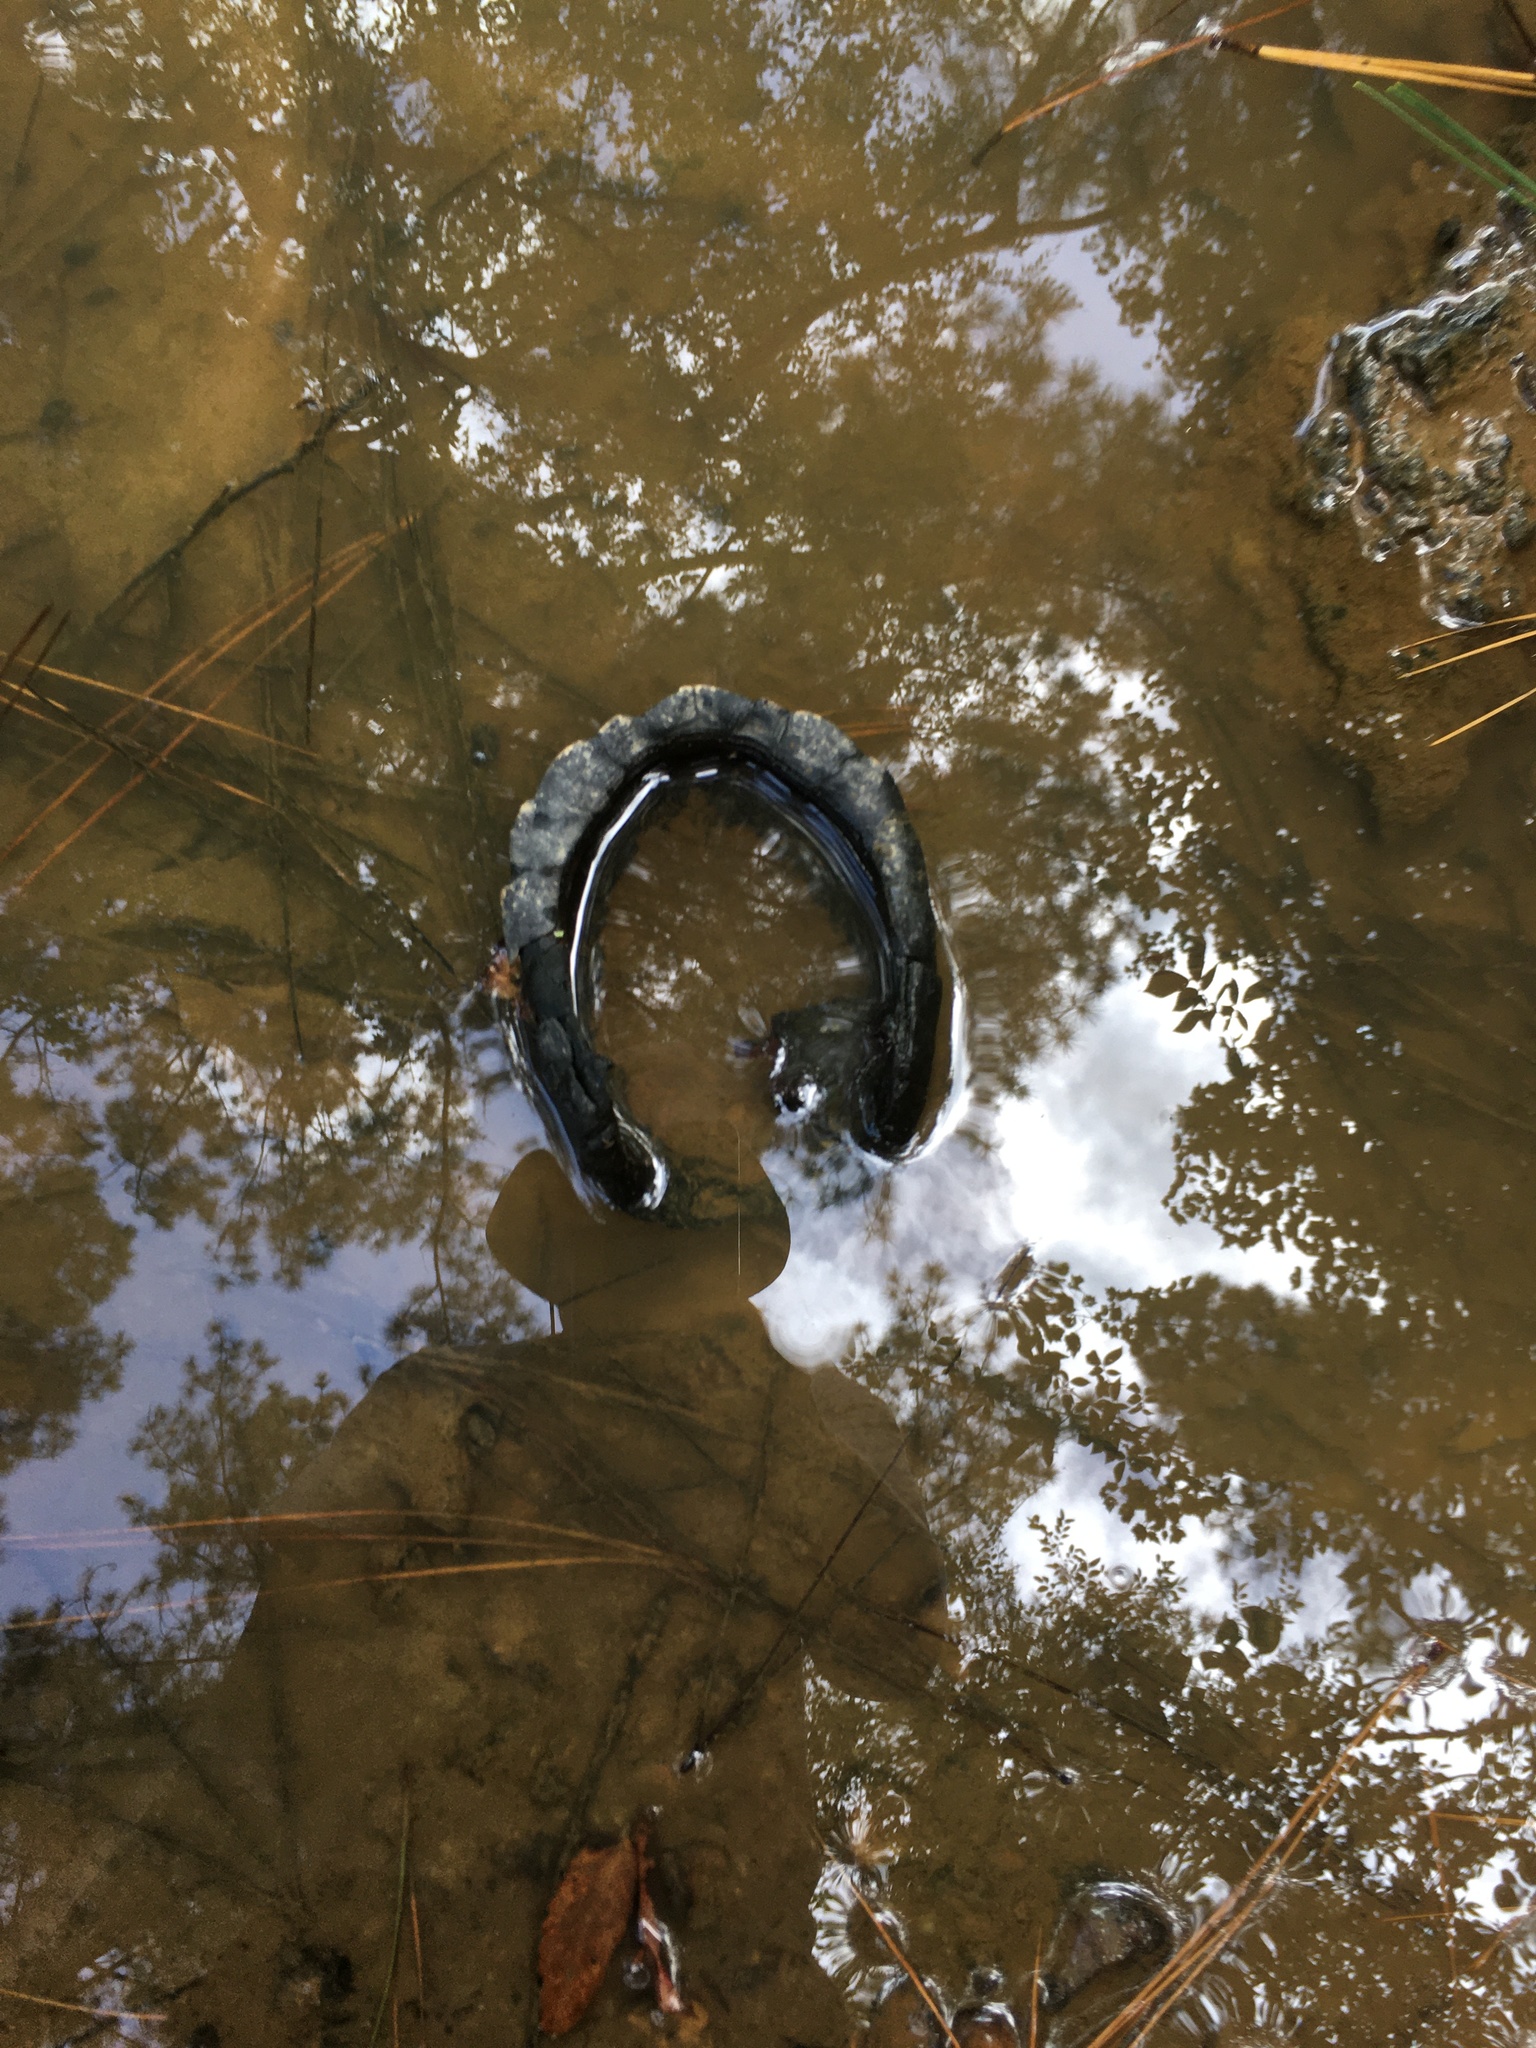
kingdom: Animalia
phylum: Chordata
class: Testudines
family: Emydidae
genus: Terrapene
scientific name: Terrapene carolina
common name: Common box turtle
